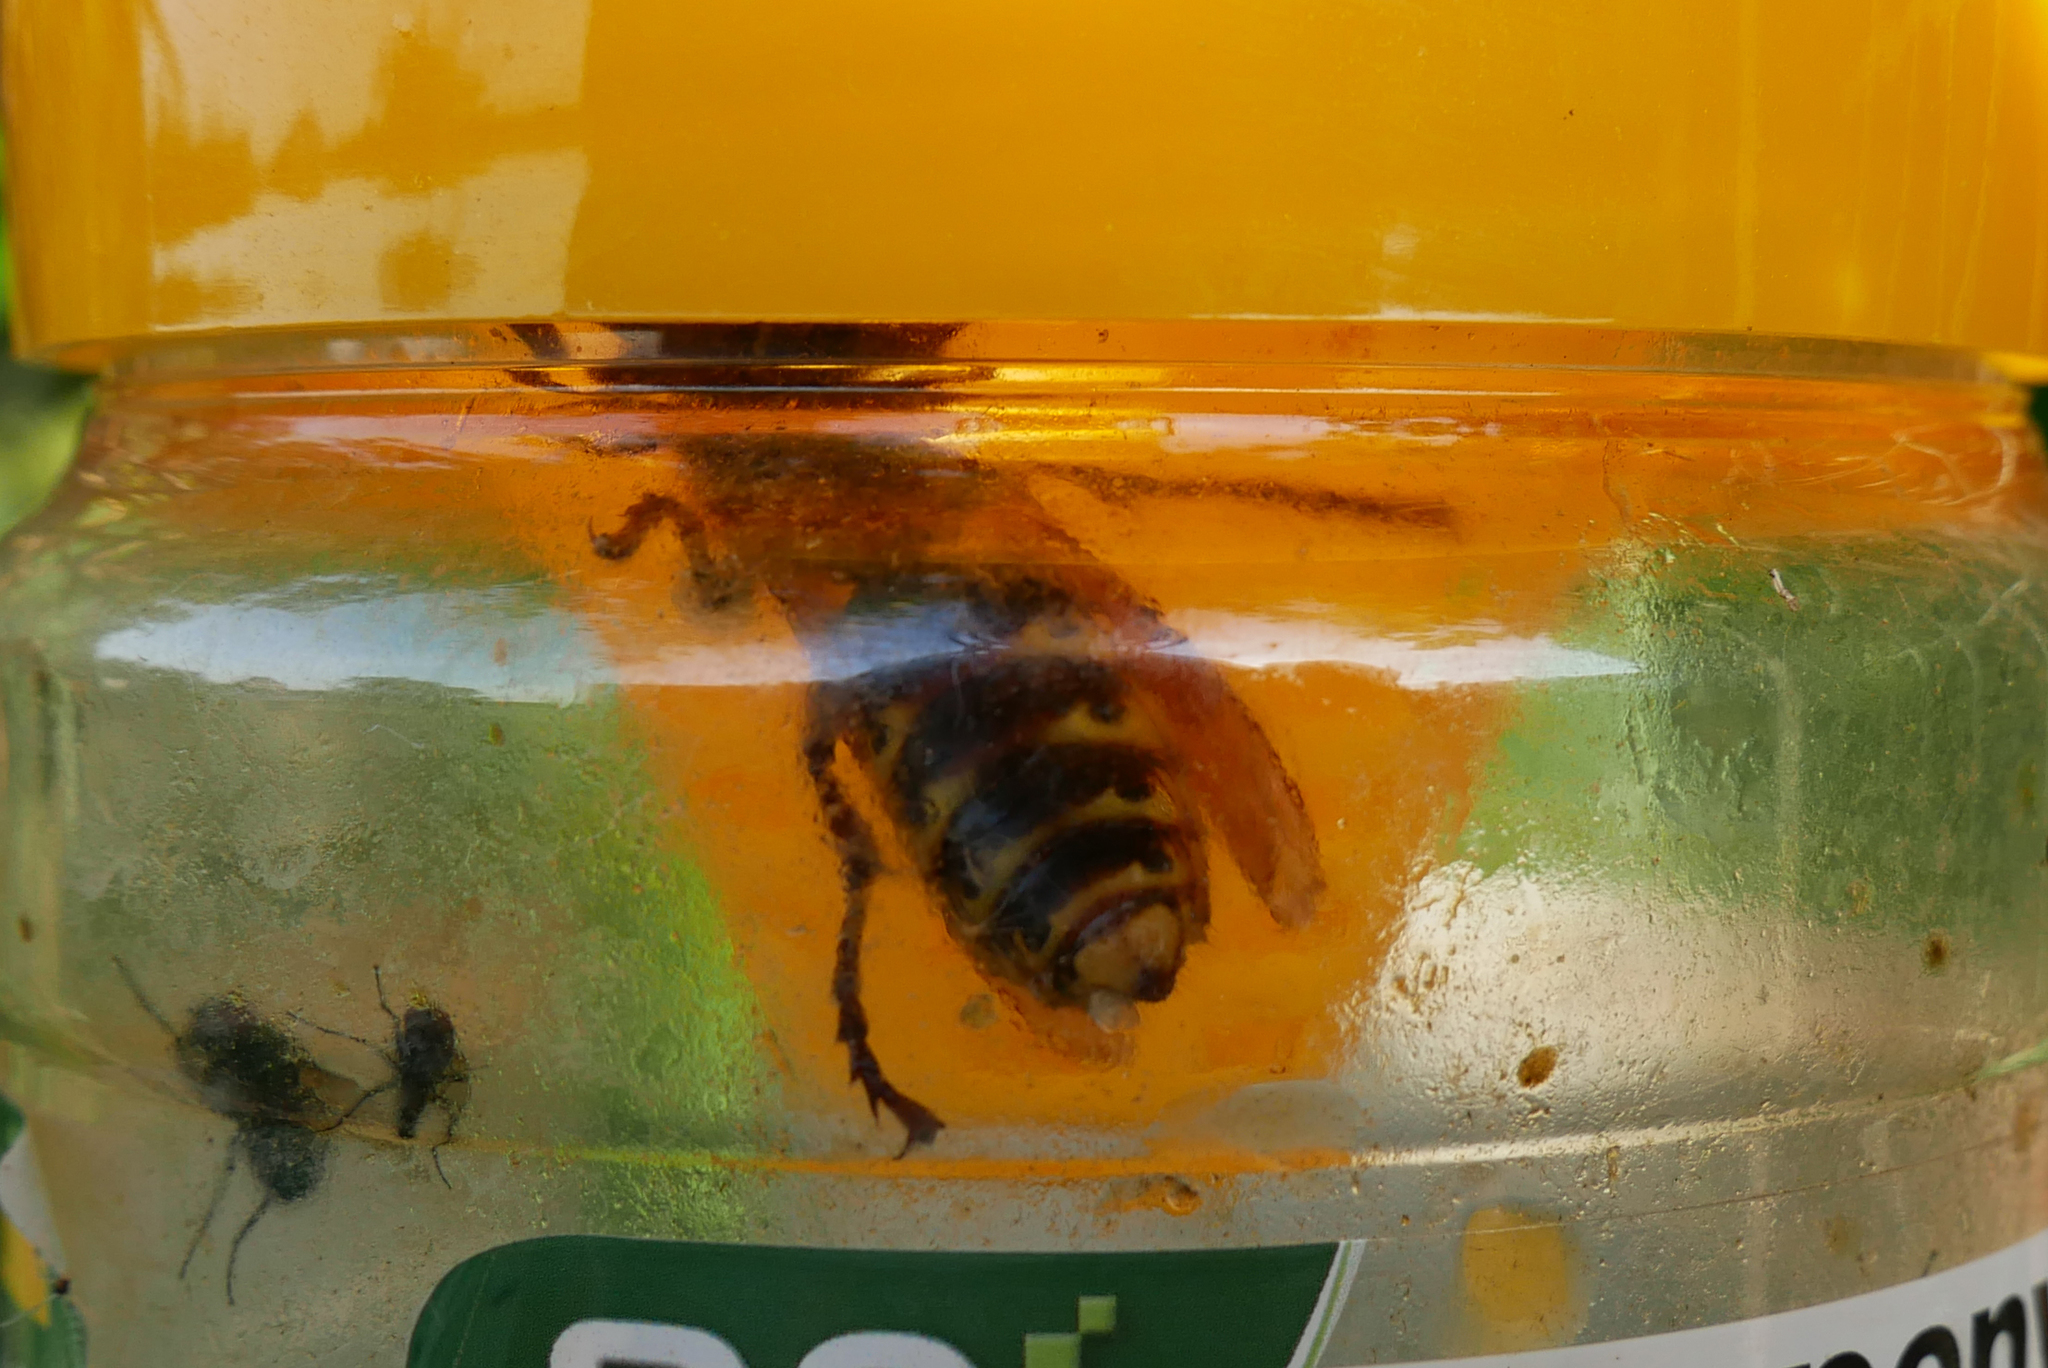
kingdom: Animalia
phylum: Arthropoda
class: Insecta
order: Hymenoptera
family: Vespidae
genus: Vespa
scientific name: Vespa crabro
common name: Hornet
